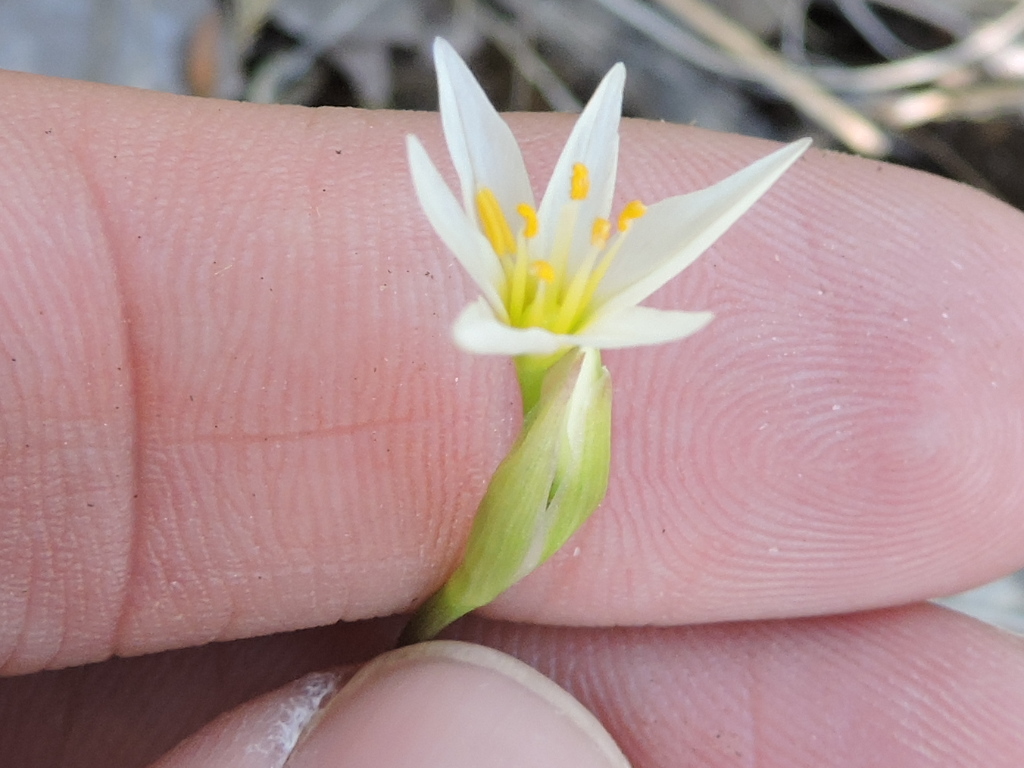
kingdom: Plantae
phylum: Tracheophyta
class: Liliopsida
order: Asparagales
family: Amaryllidaceae
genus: Nothoscordum
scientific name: Nothoscordum bivalve
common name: Crow-poison
